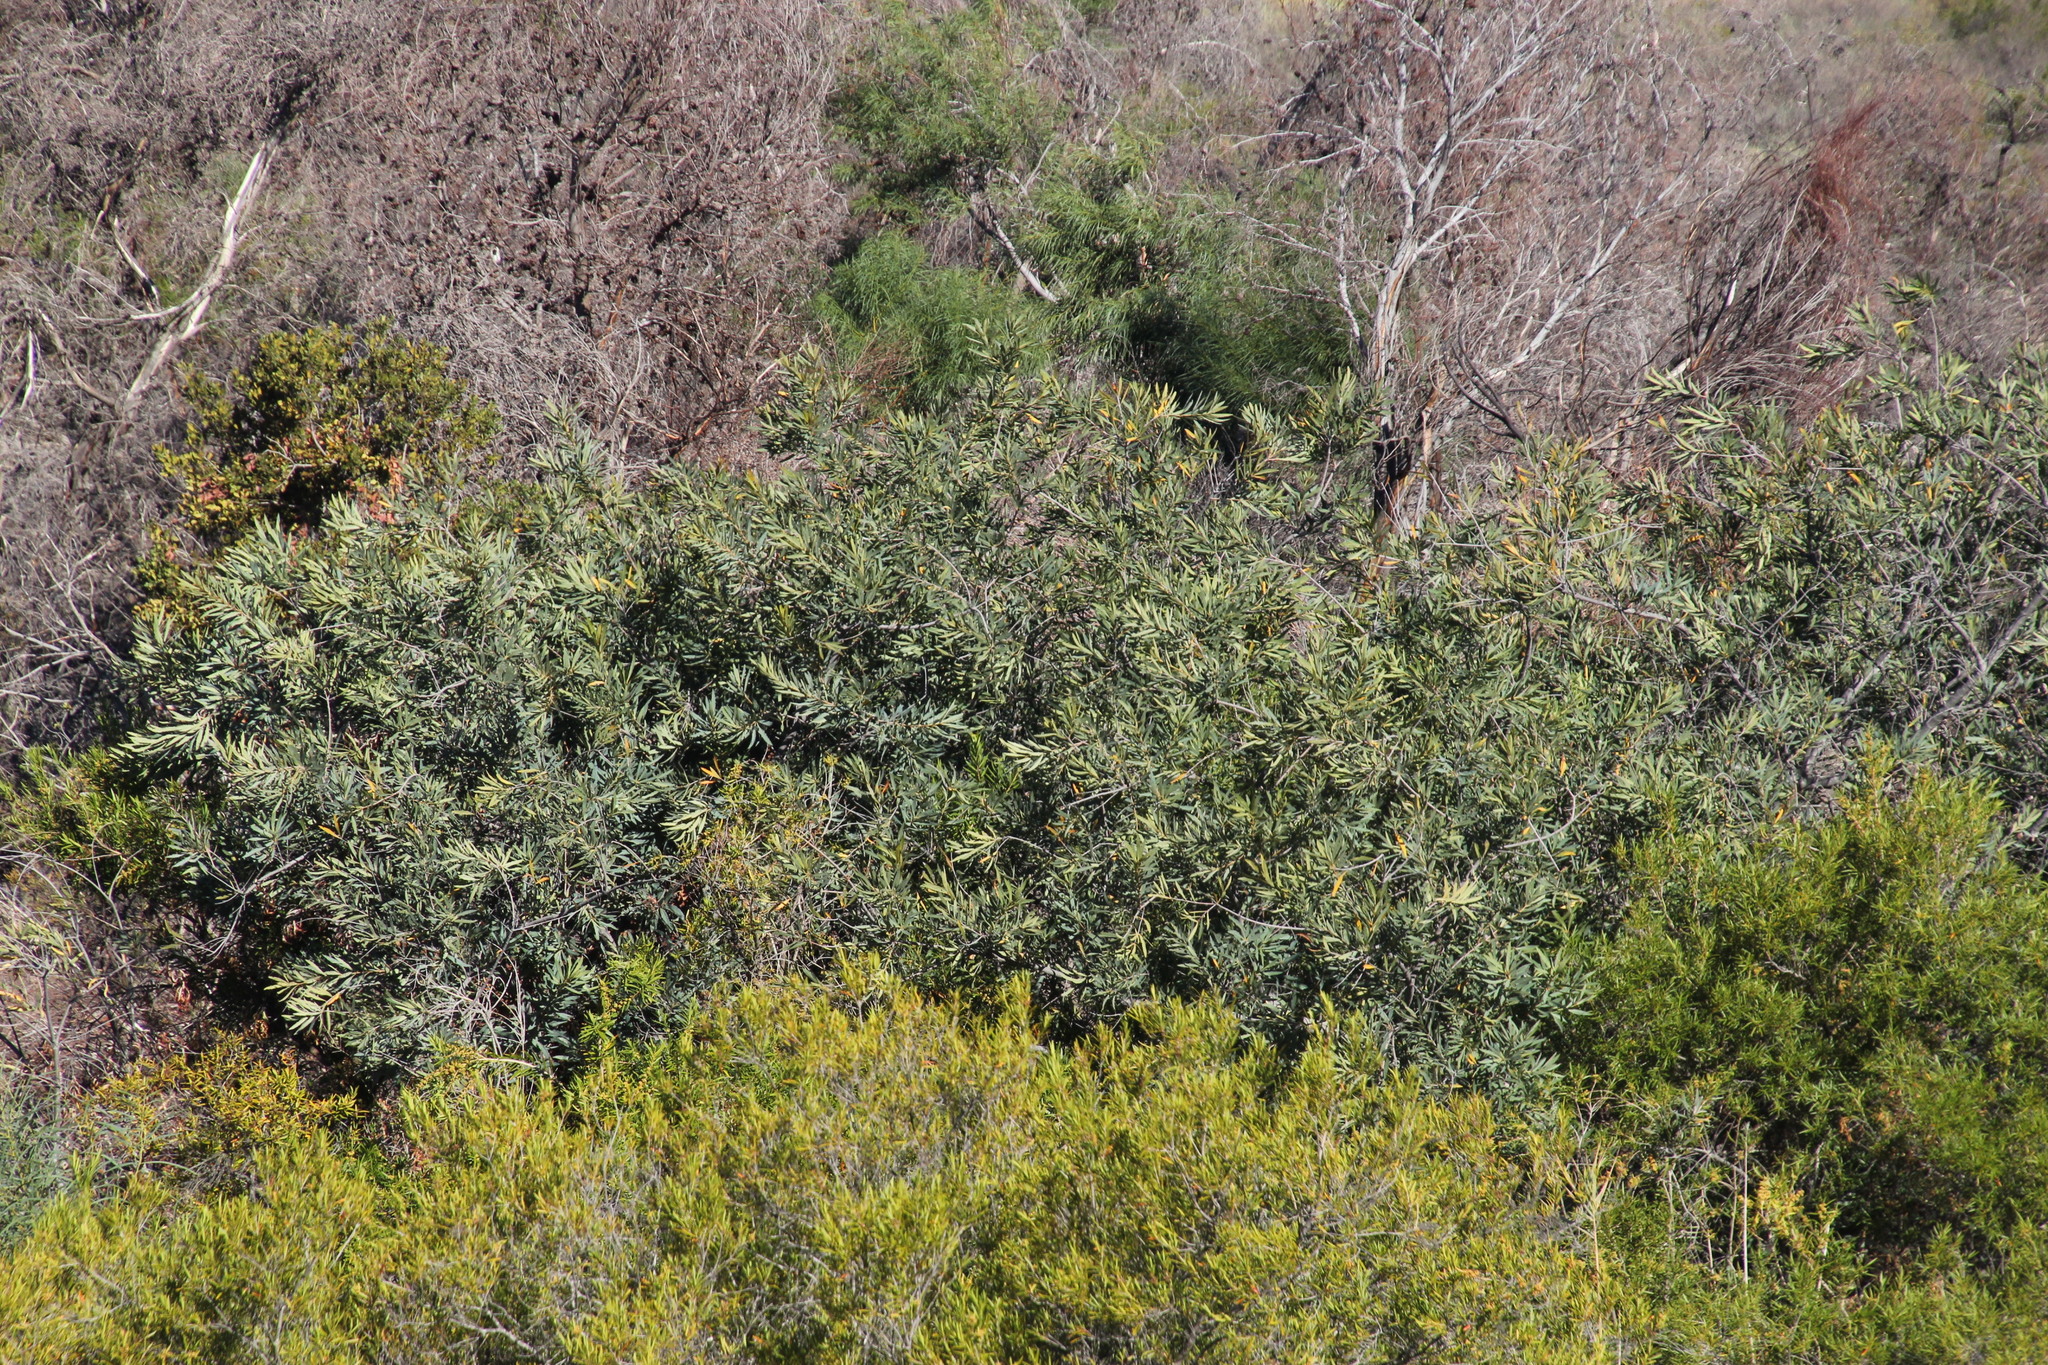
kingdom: Plantae
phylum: Tracheophyta
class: Magnoliopsida
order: Proteales
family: Proteaceae
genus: Brabejum
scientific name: Brabejum stellatifolium
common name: Wild almond
